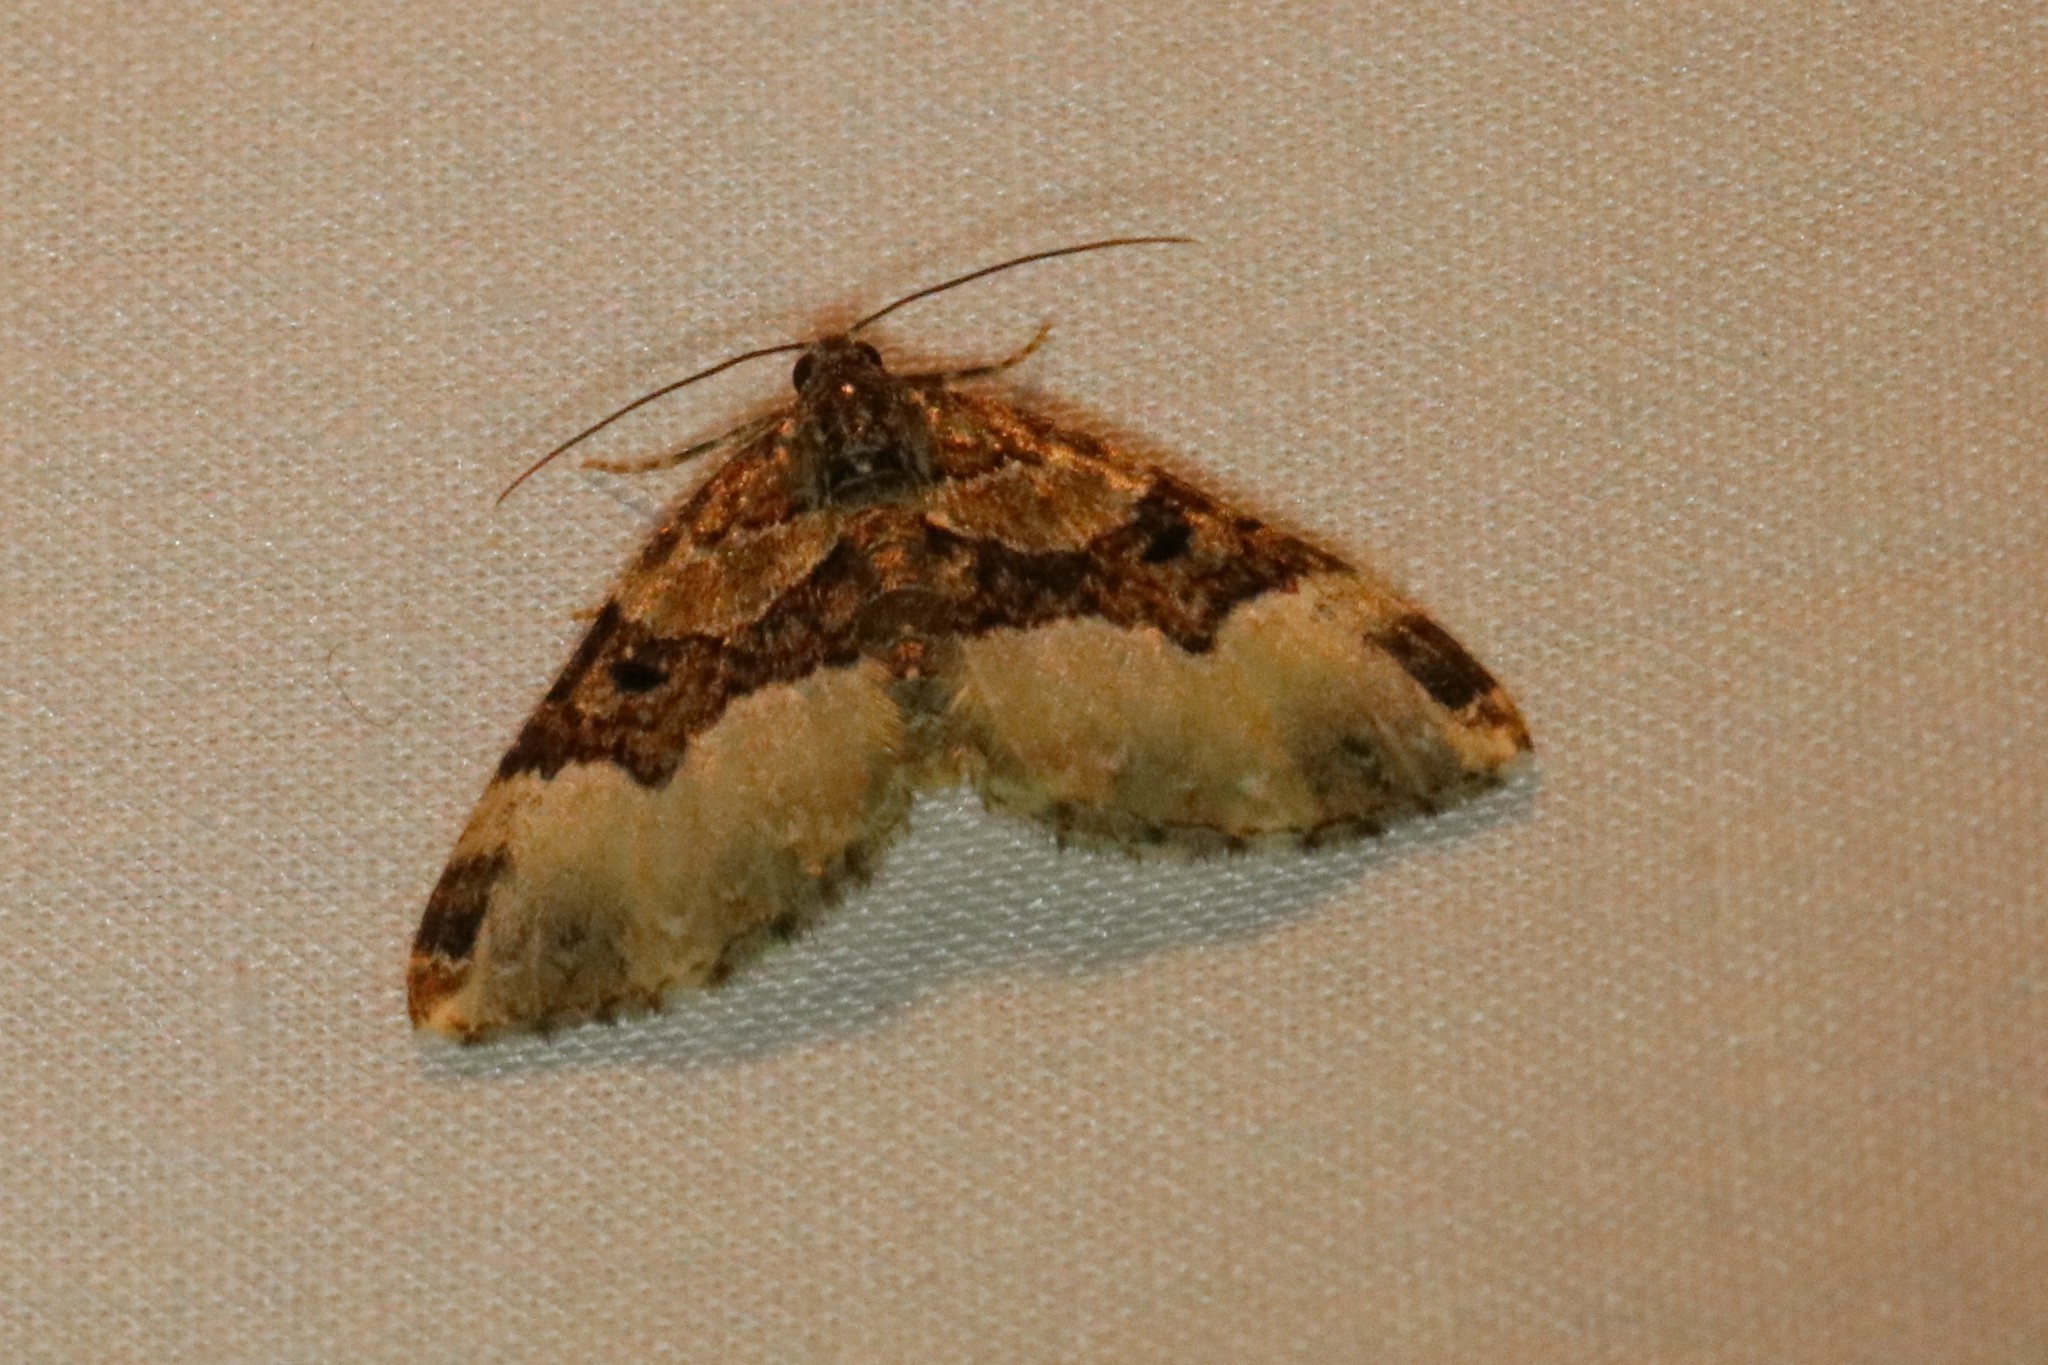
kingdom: Animalia
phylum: Arthropoda
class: Insecta
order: Lepidoptera
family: Geometridae
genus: Euphyia
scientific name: Euphyia intermediata
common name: Sharp-angled carpet
